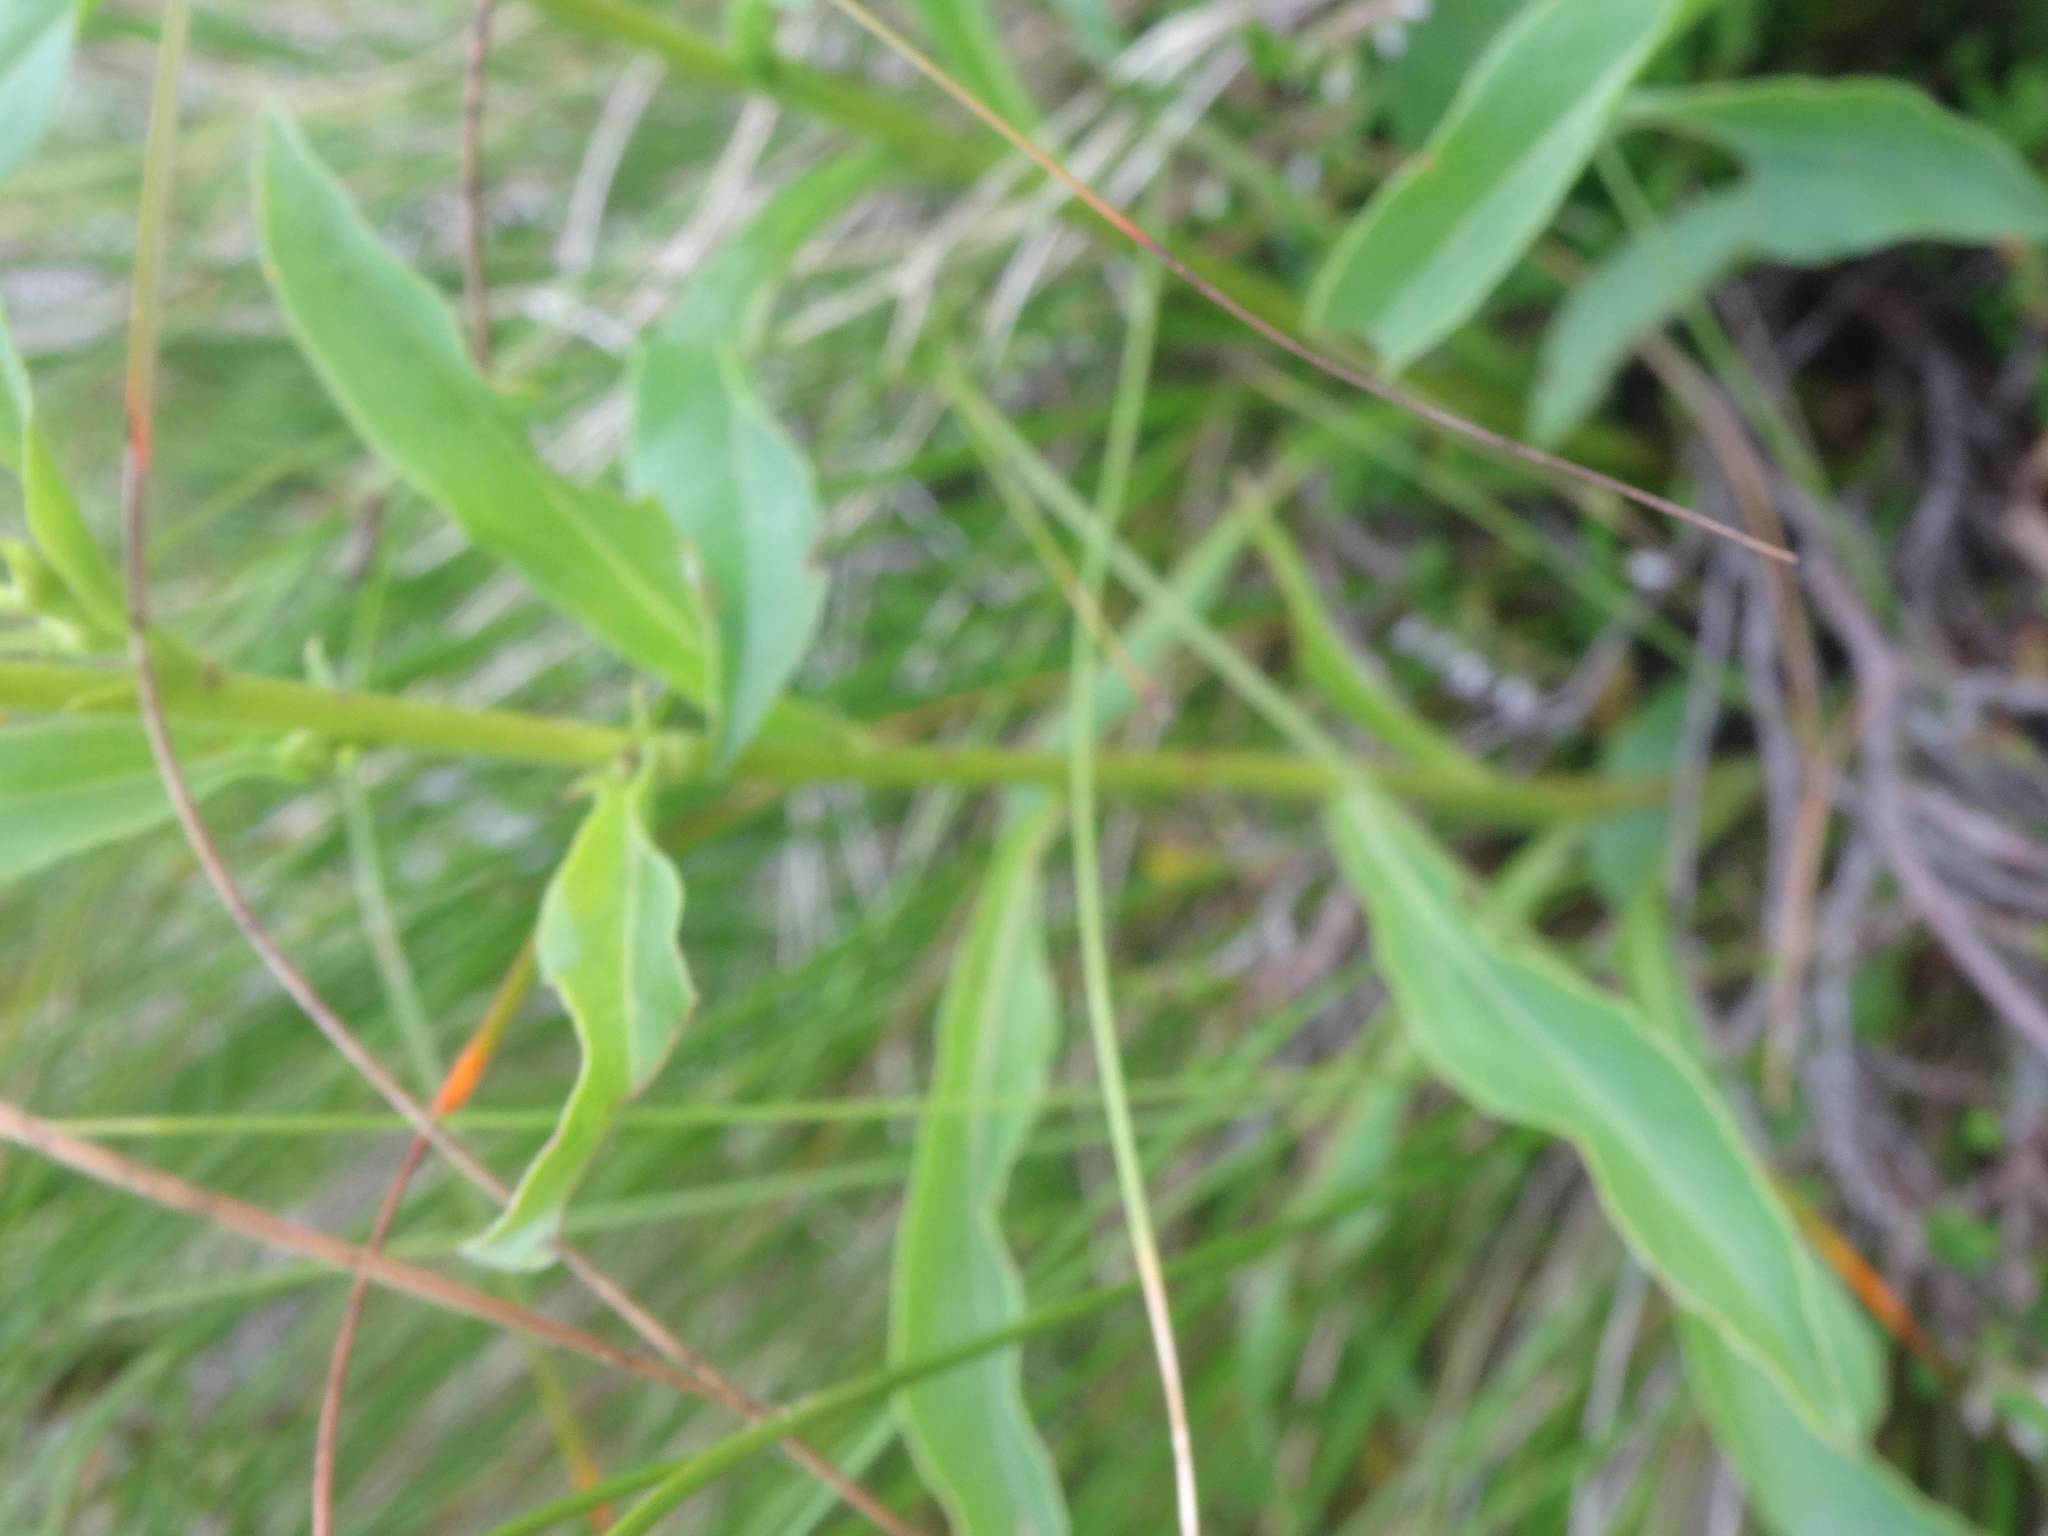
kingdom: Plantae
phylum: Tracheophyta
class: Magnoliopsida
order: Asterales
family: Asteraceae
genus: Solidago
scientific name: Solidago virgaurea
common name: Goldenrod
